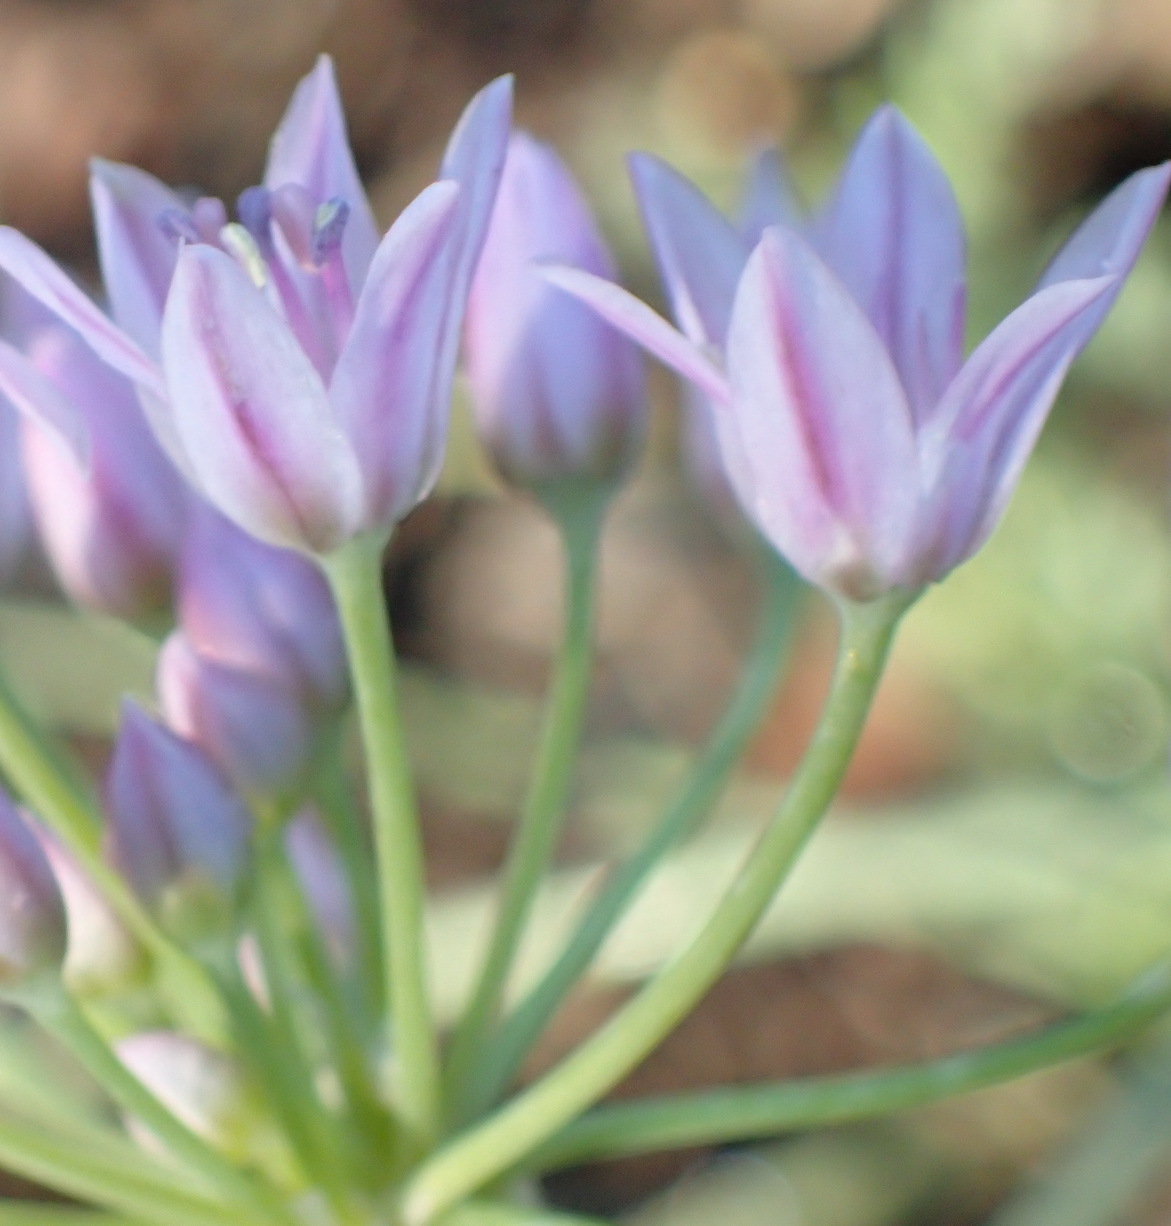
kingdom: Plantae
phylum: Tracheophyta
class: Liliopsida
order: Asparagales
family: Amaryllidaceae
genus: Allium
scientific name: Allium canadense
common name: Meadow garlic
